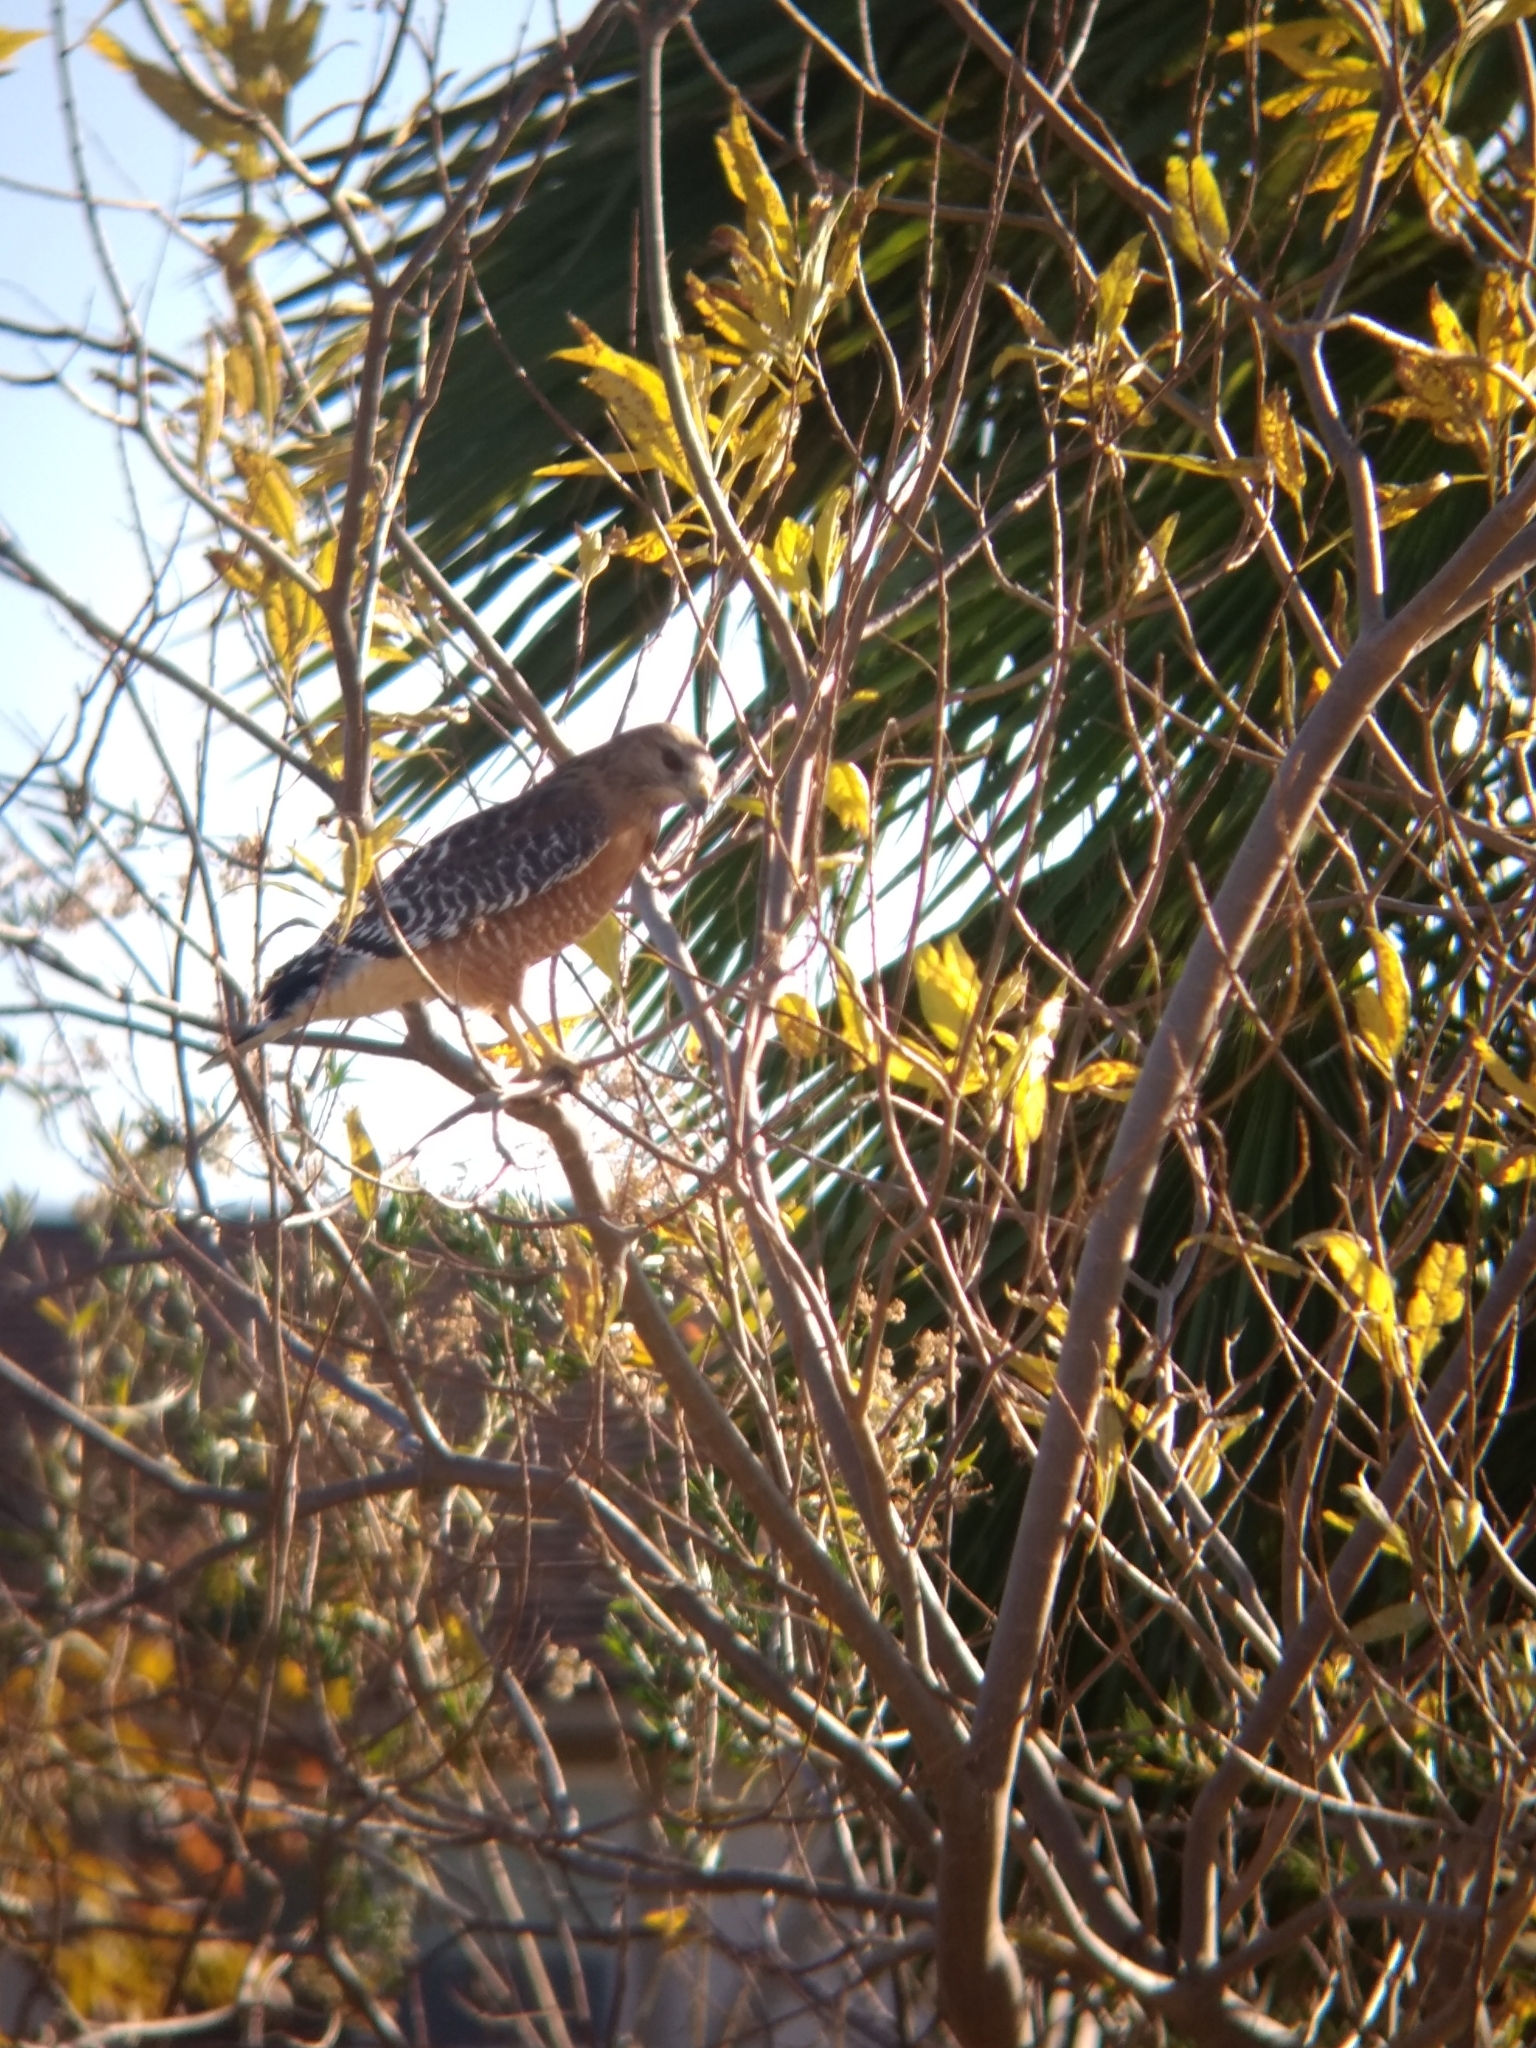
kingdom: Animalia
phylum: Chordata
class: Aves
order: Accipitriformes
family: Accipitridae
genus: Buteo
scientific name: Buteo lineatus
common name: Red-shouldered hawk
